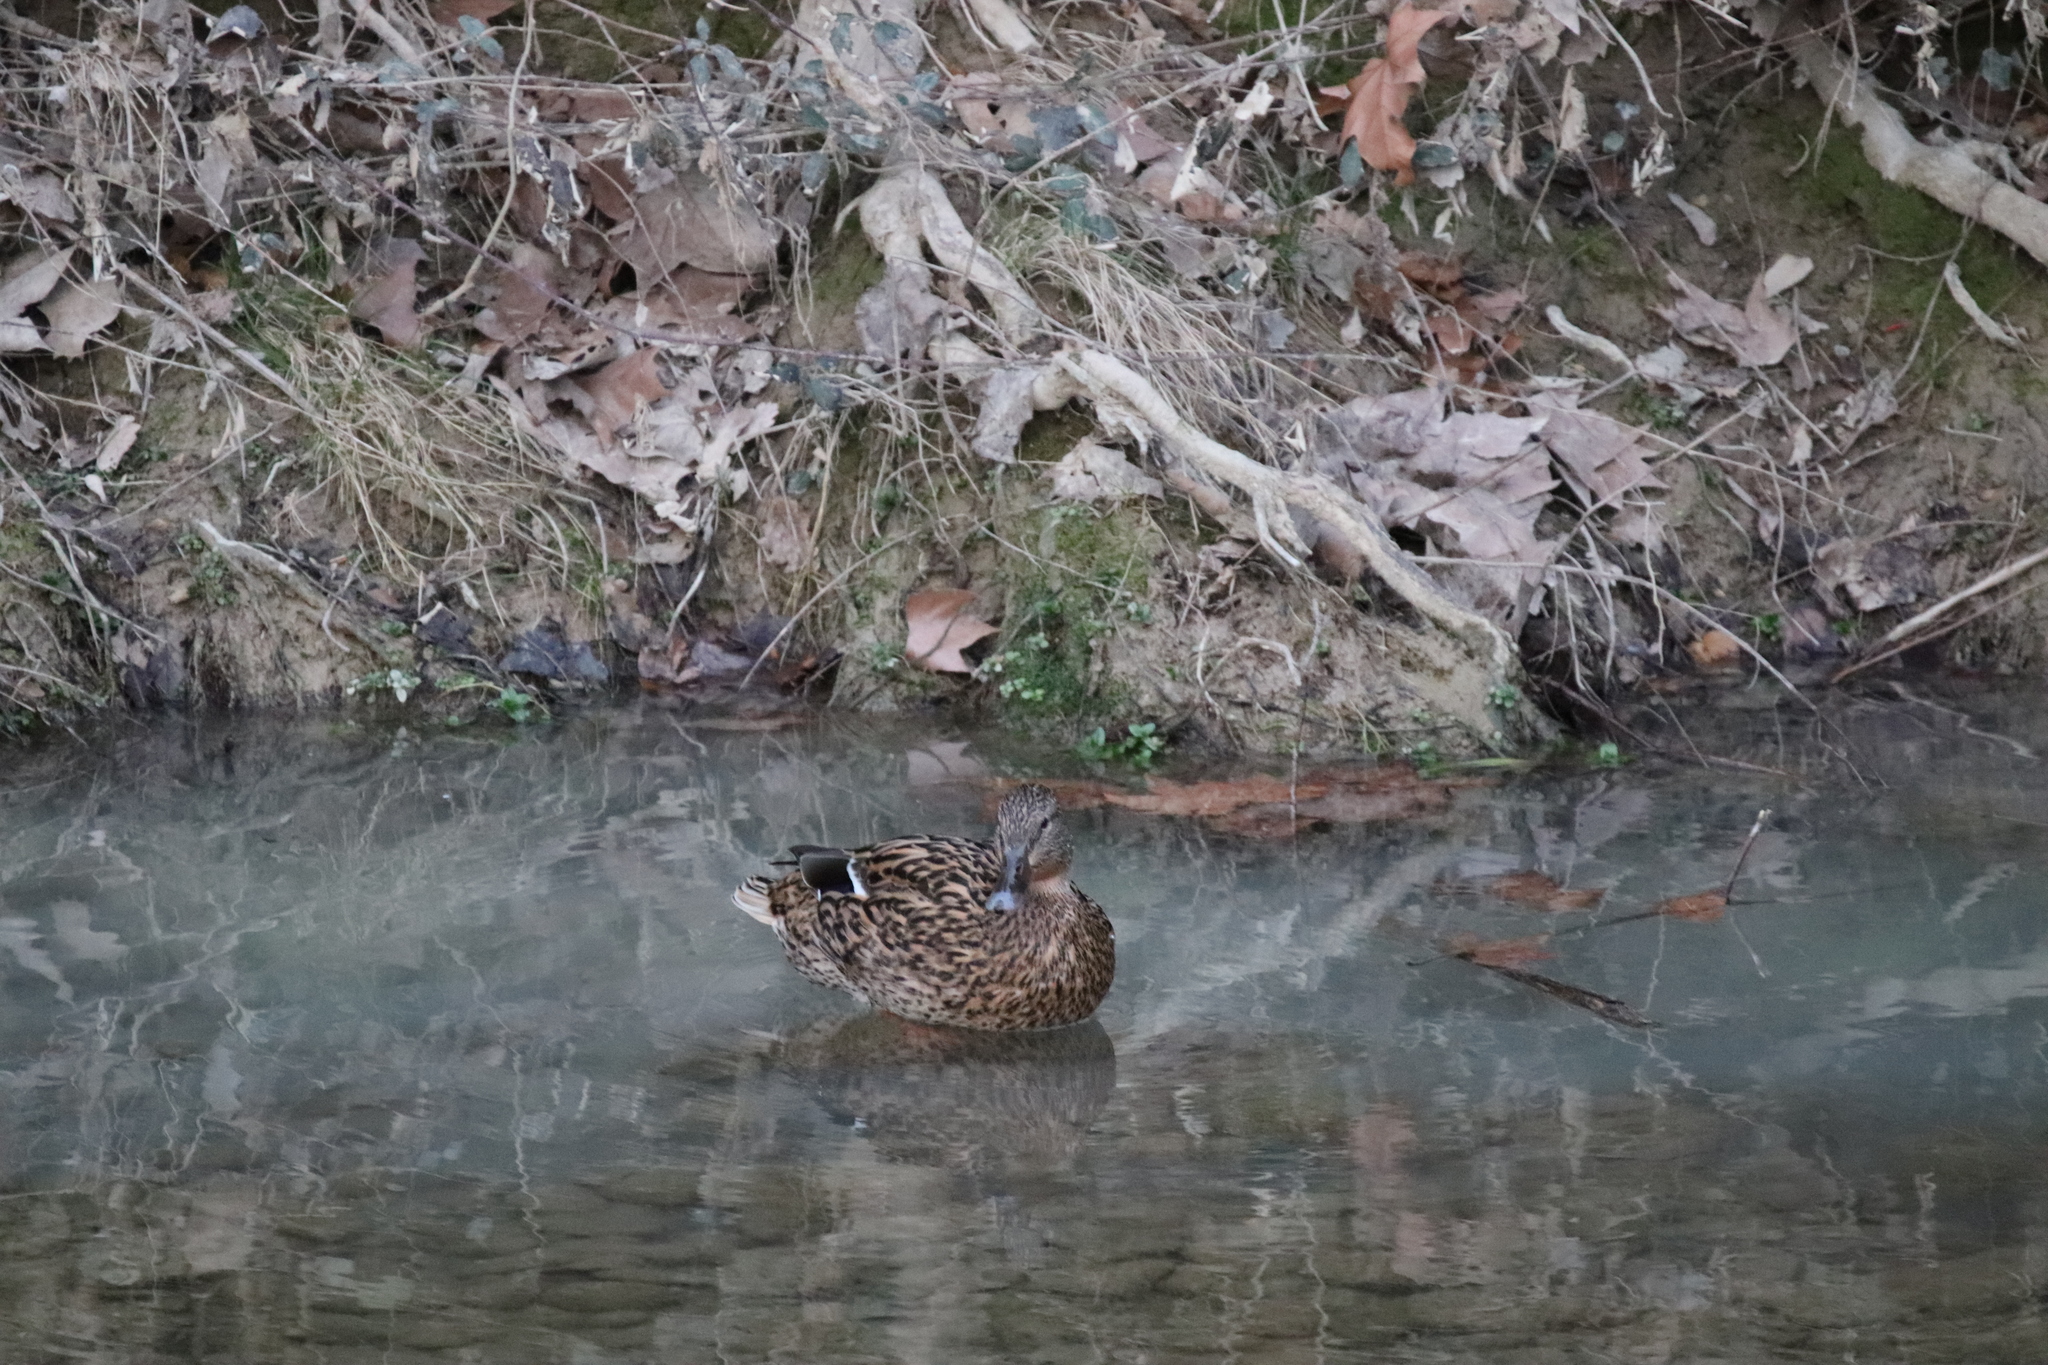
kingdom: Animalia
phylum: Chordata
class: Aves
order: Anseriformes
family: Anatidae
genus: Anas
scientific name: Anas platyrhynchos
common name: Mallard
